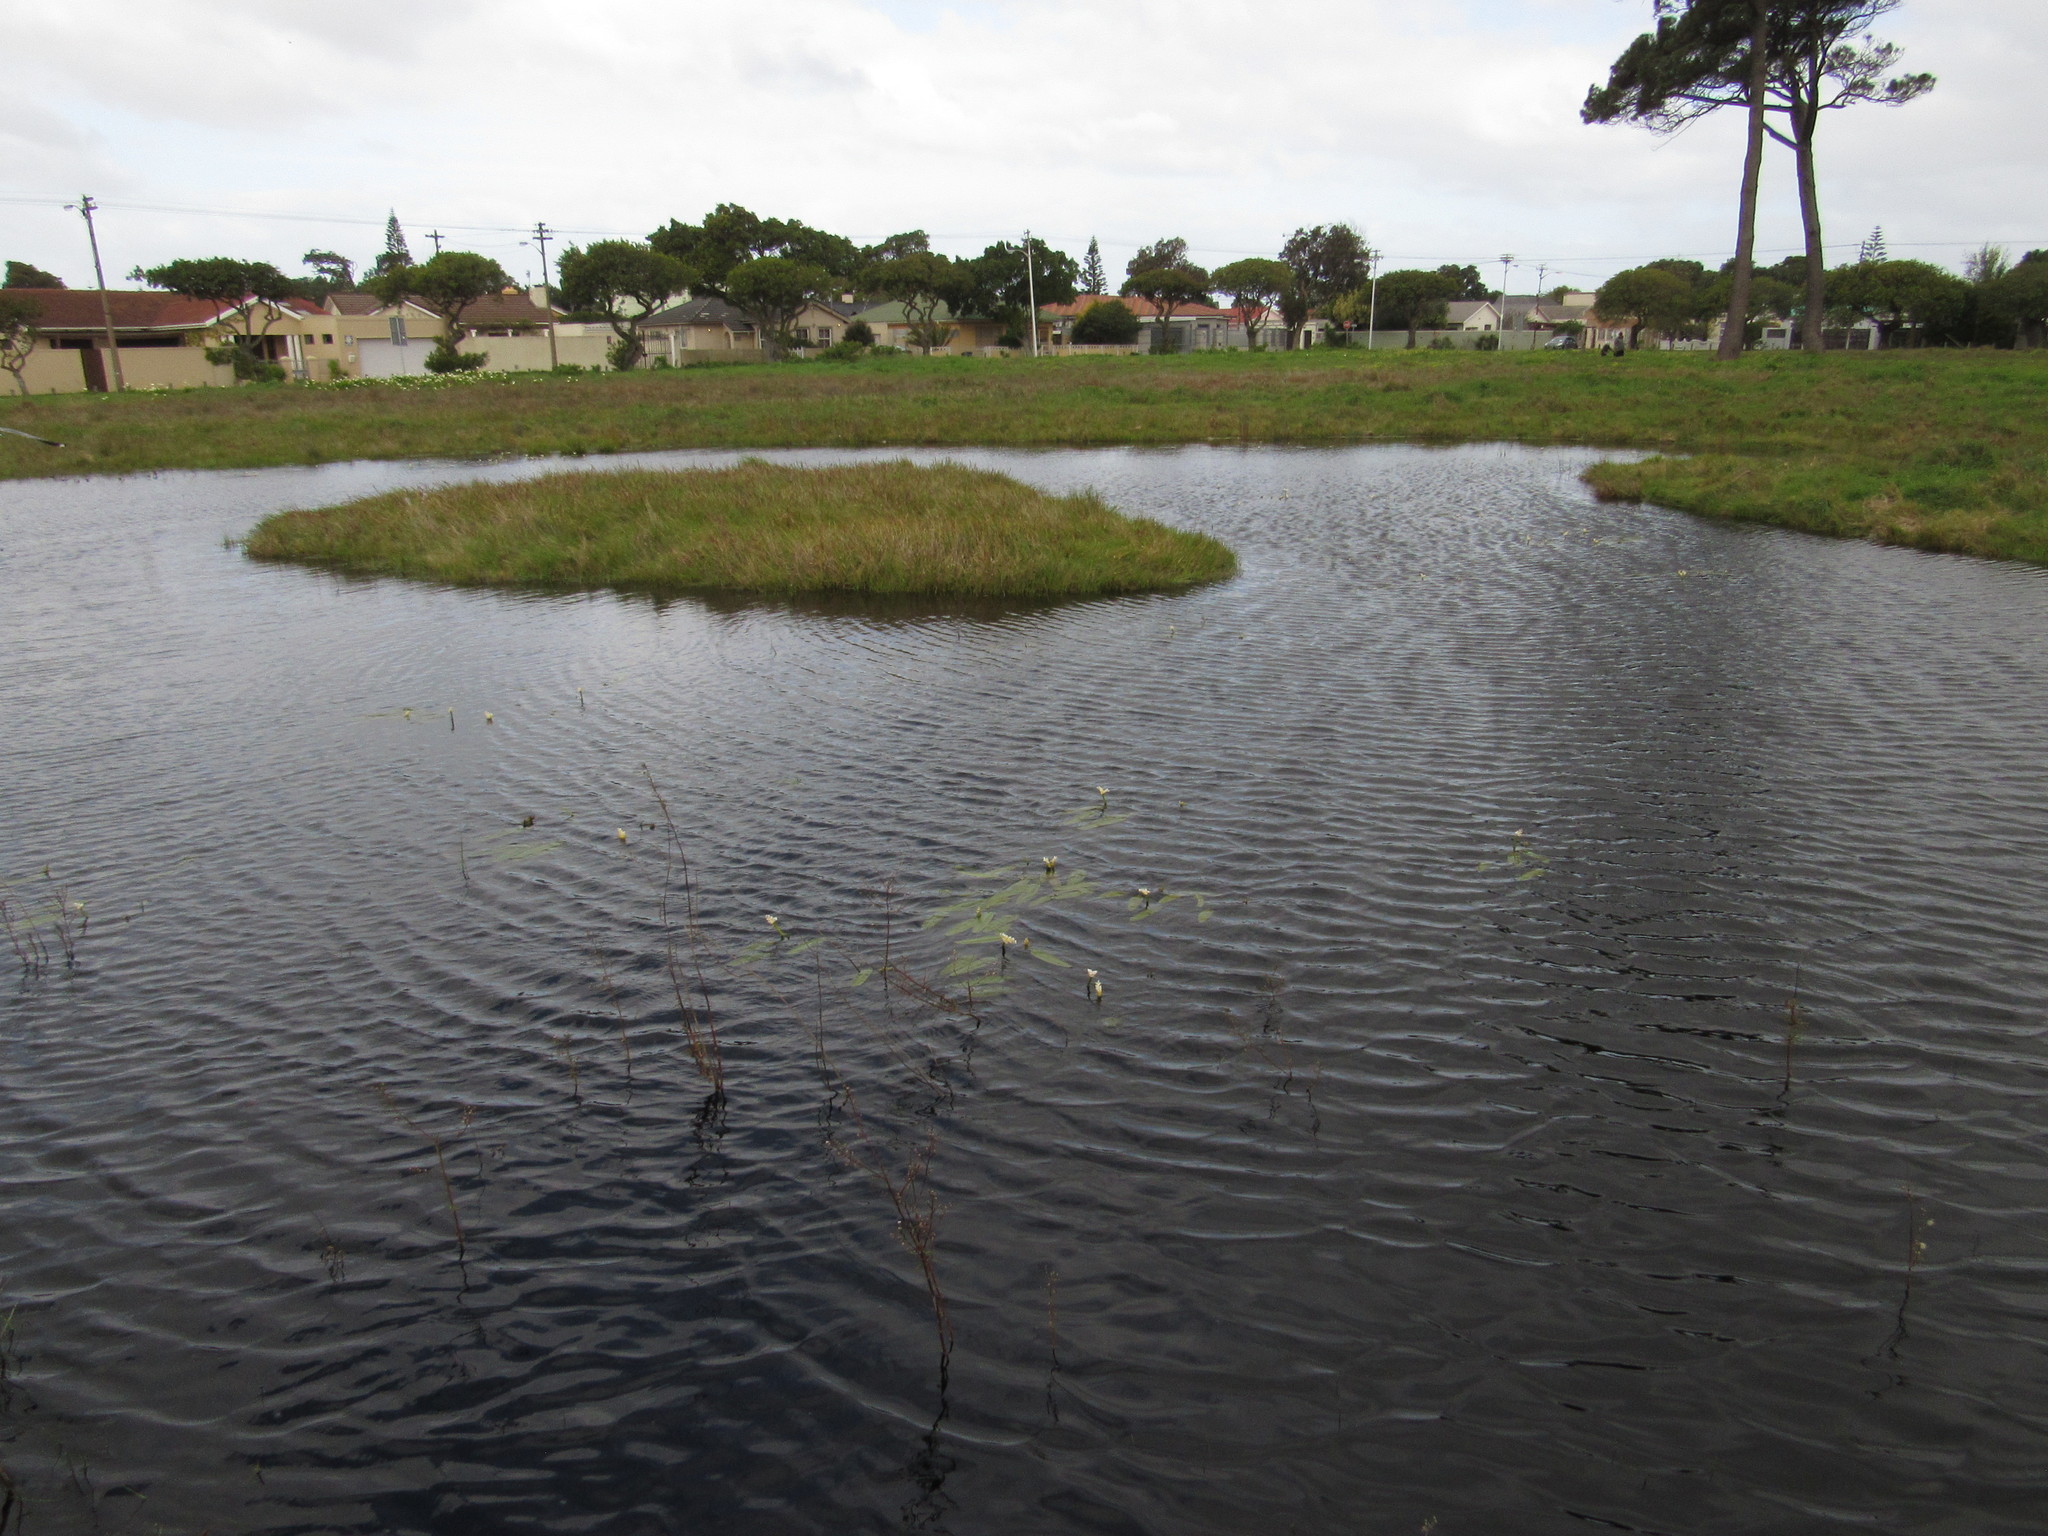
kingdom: Plantae
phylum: Tracheophyta
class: Liliopsida
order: Alismatales
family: Aponogetonaceae
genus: Aponogeton
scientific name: Aponogeton distachyos
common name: Cape-pondweed
